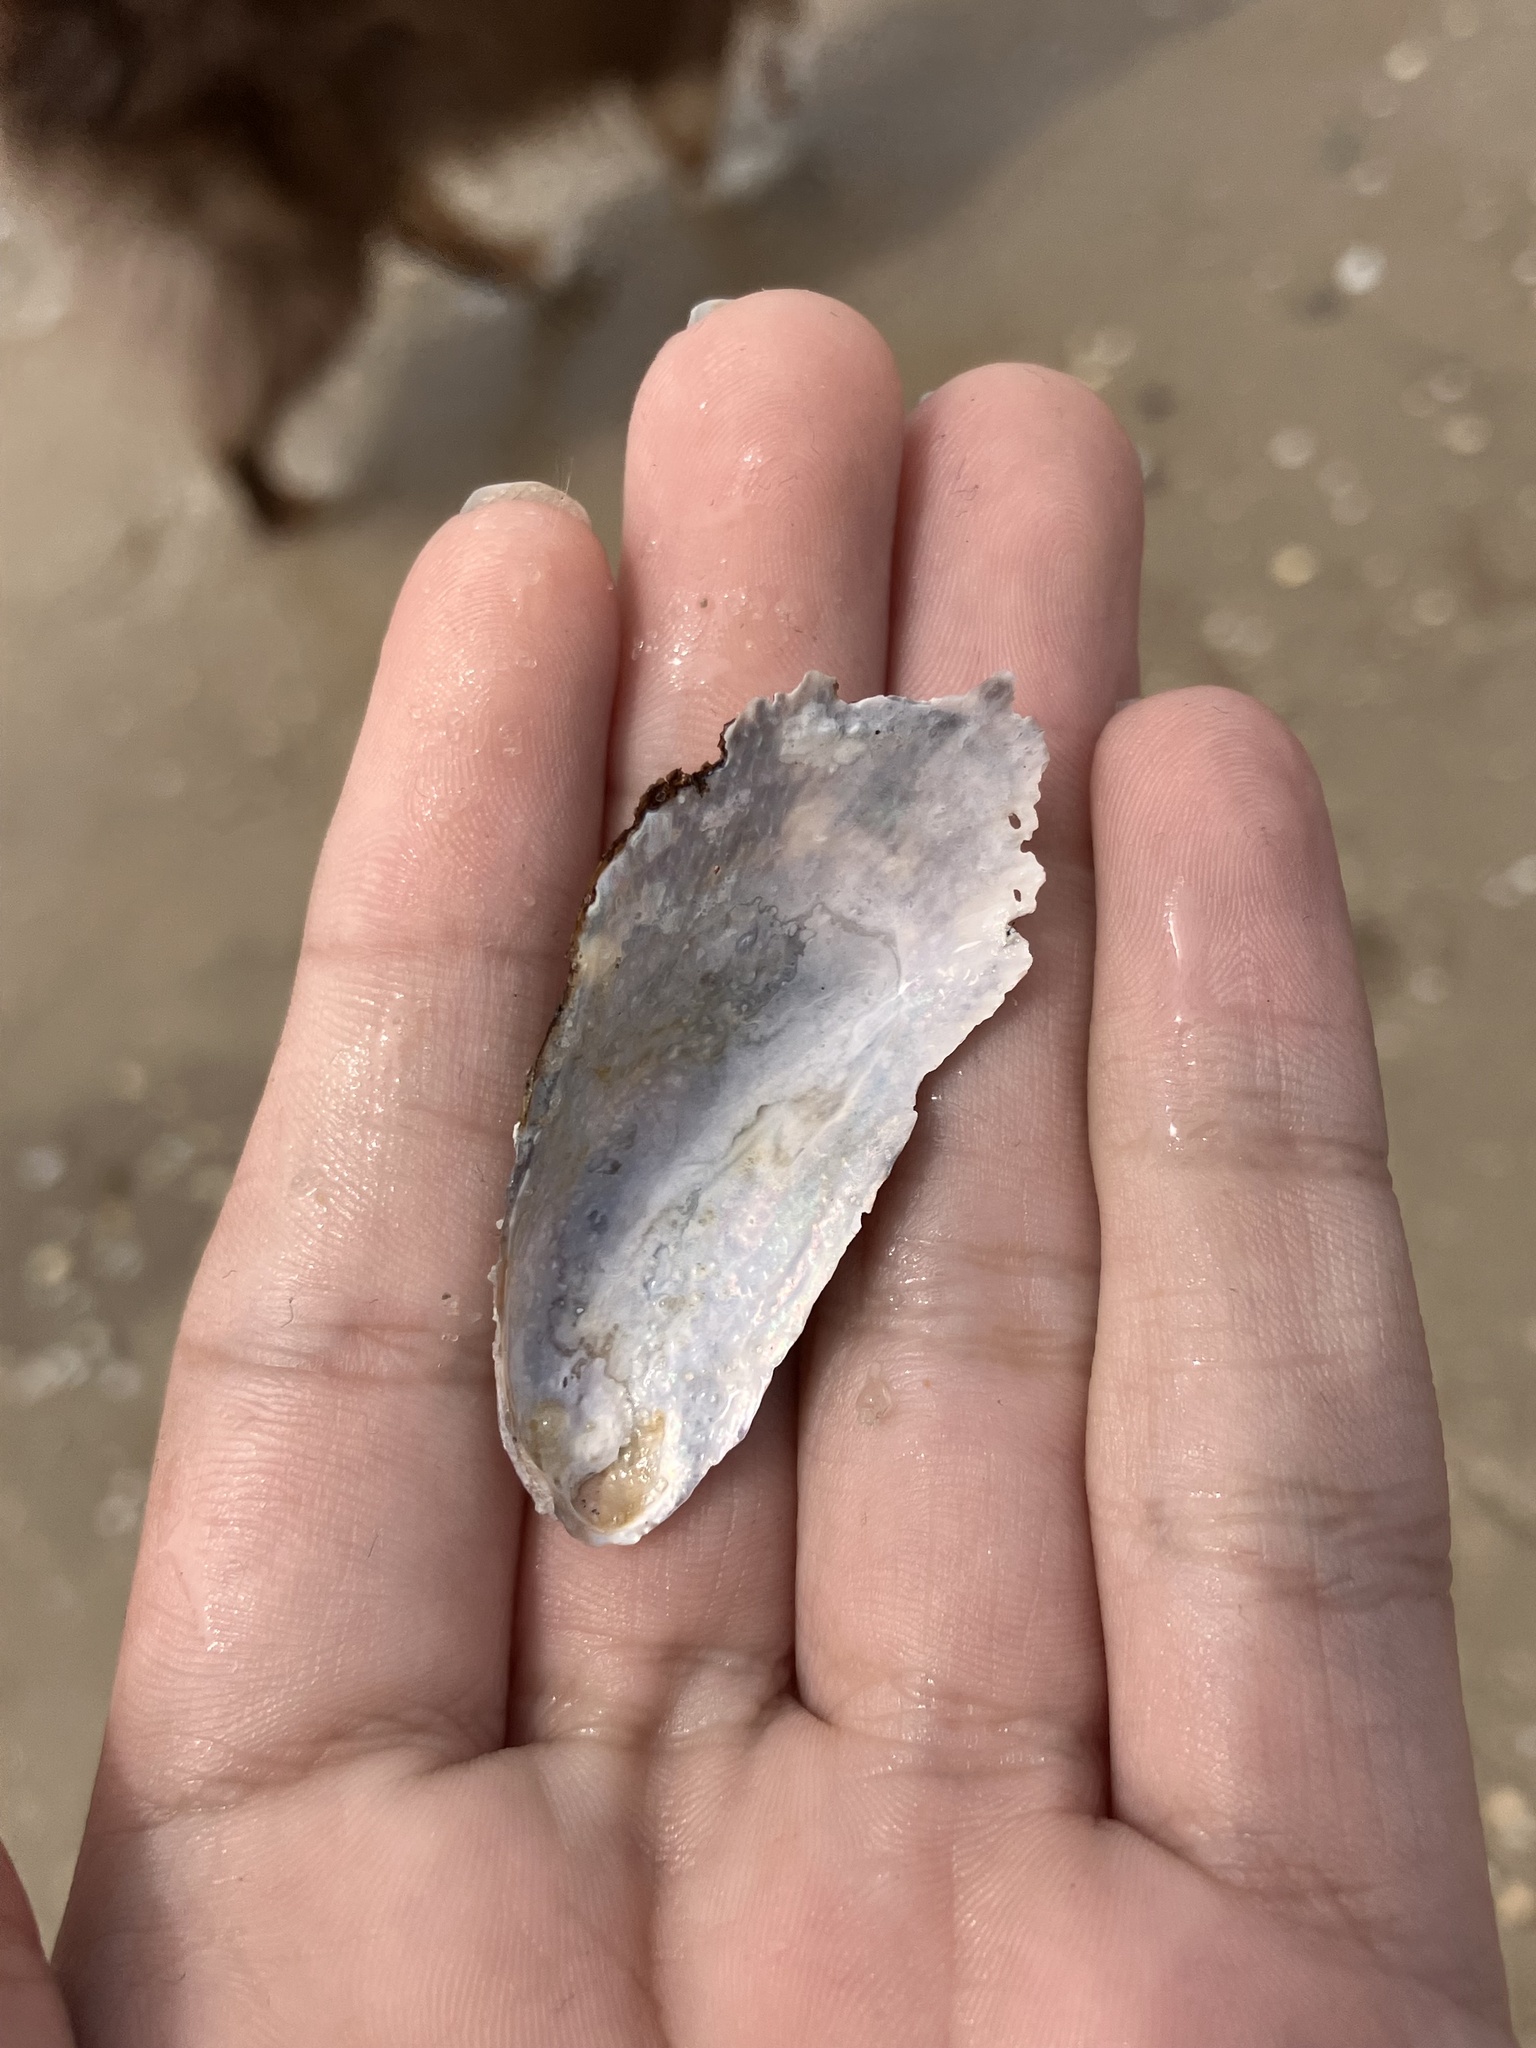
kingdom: Animalia
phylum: Mollusca
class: Bivalvia
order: Mytilida
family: Mytilidae
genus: Geukensia
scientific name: Geukensia demissa
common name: Ribbed mussel
